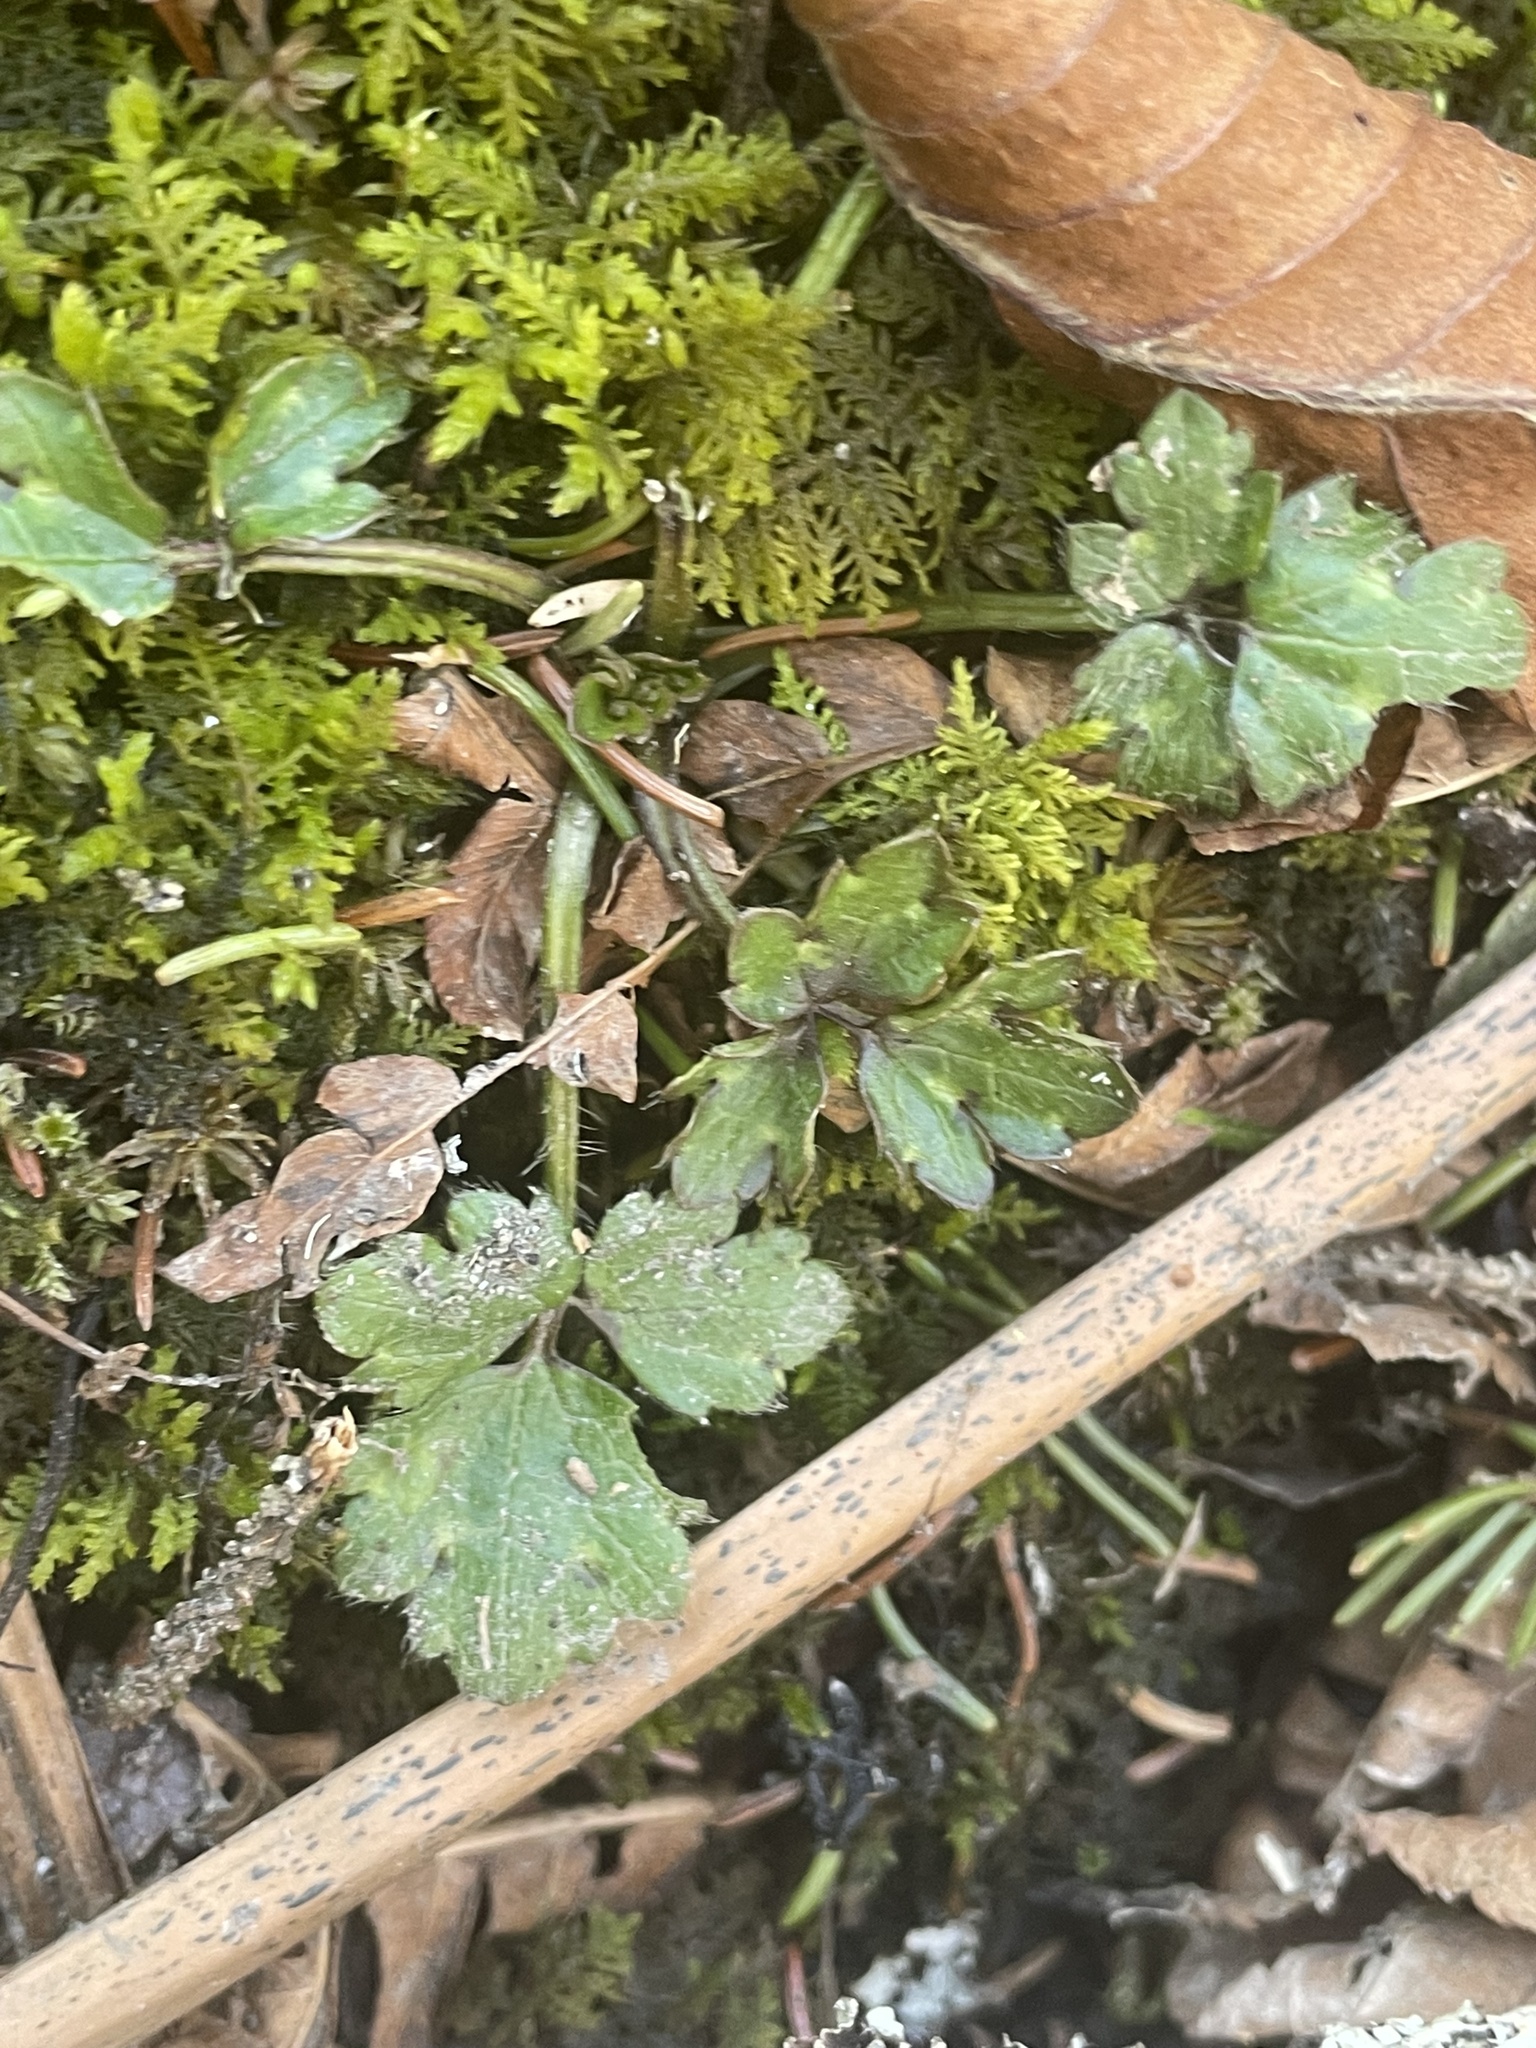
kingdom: Plantae
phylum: Tracheophyta
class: Magnoliopsida
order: Ranunculales
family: Ranunculaceae
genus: Ranunculus
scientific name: Ranunculus repens
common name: Creeping buttercup
